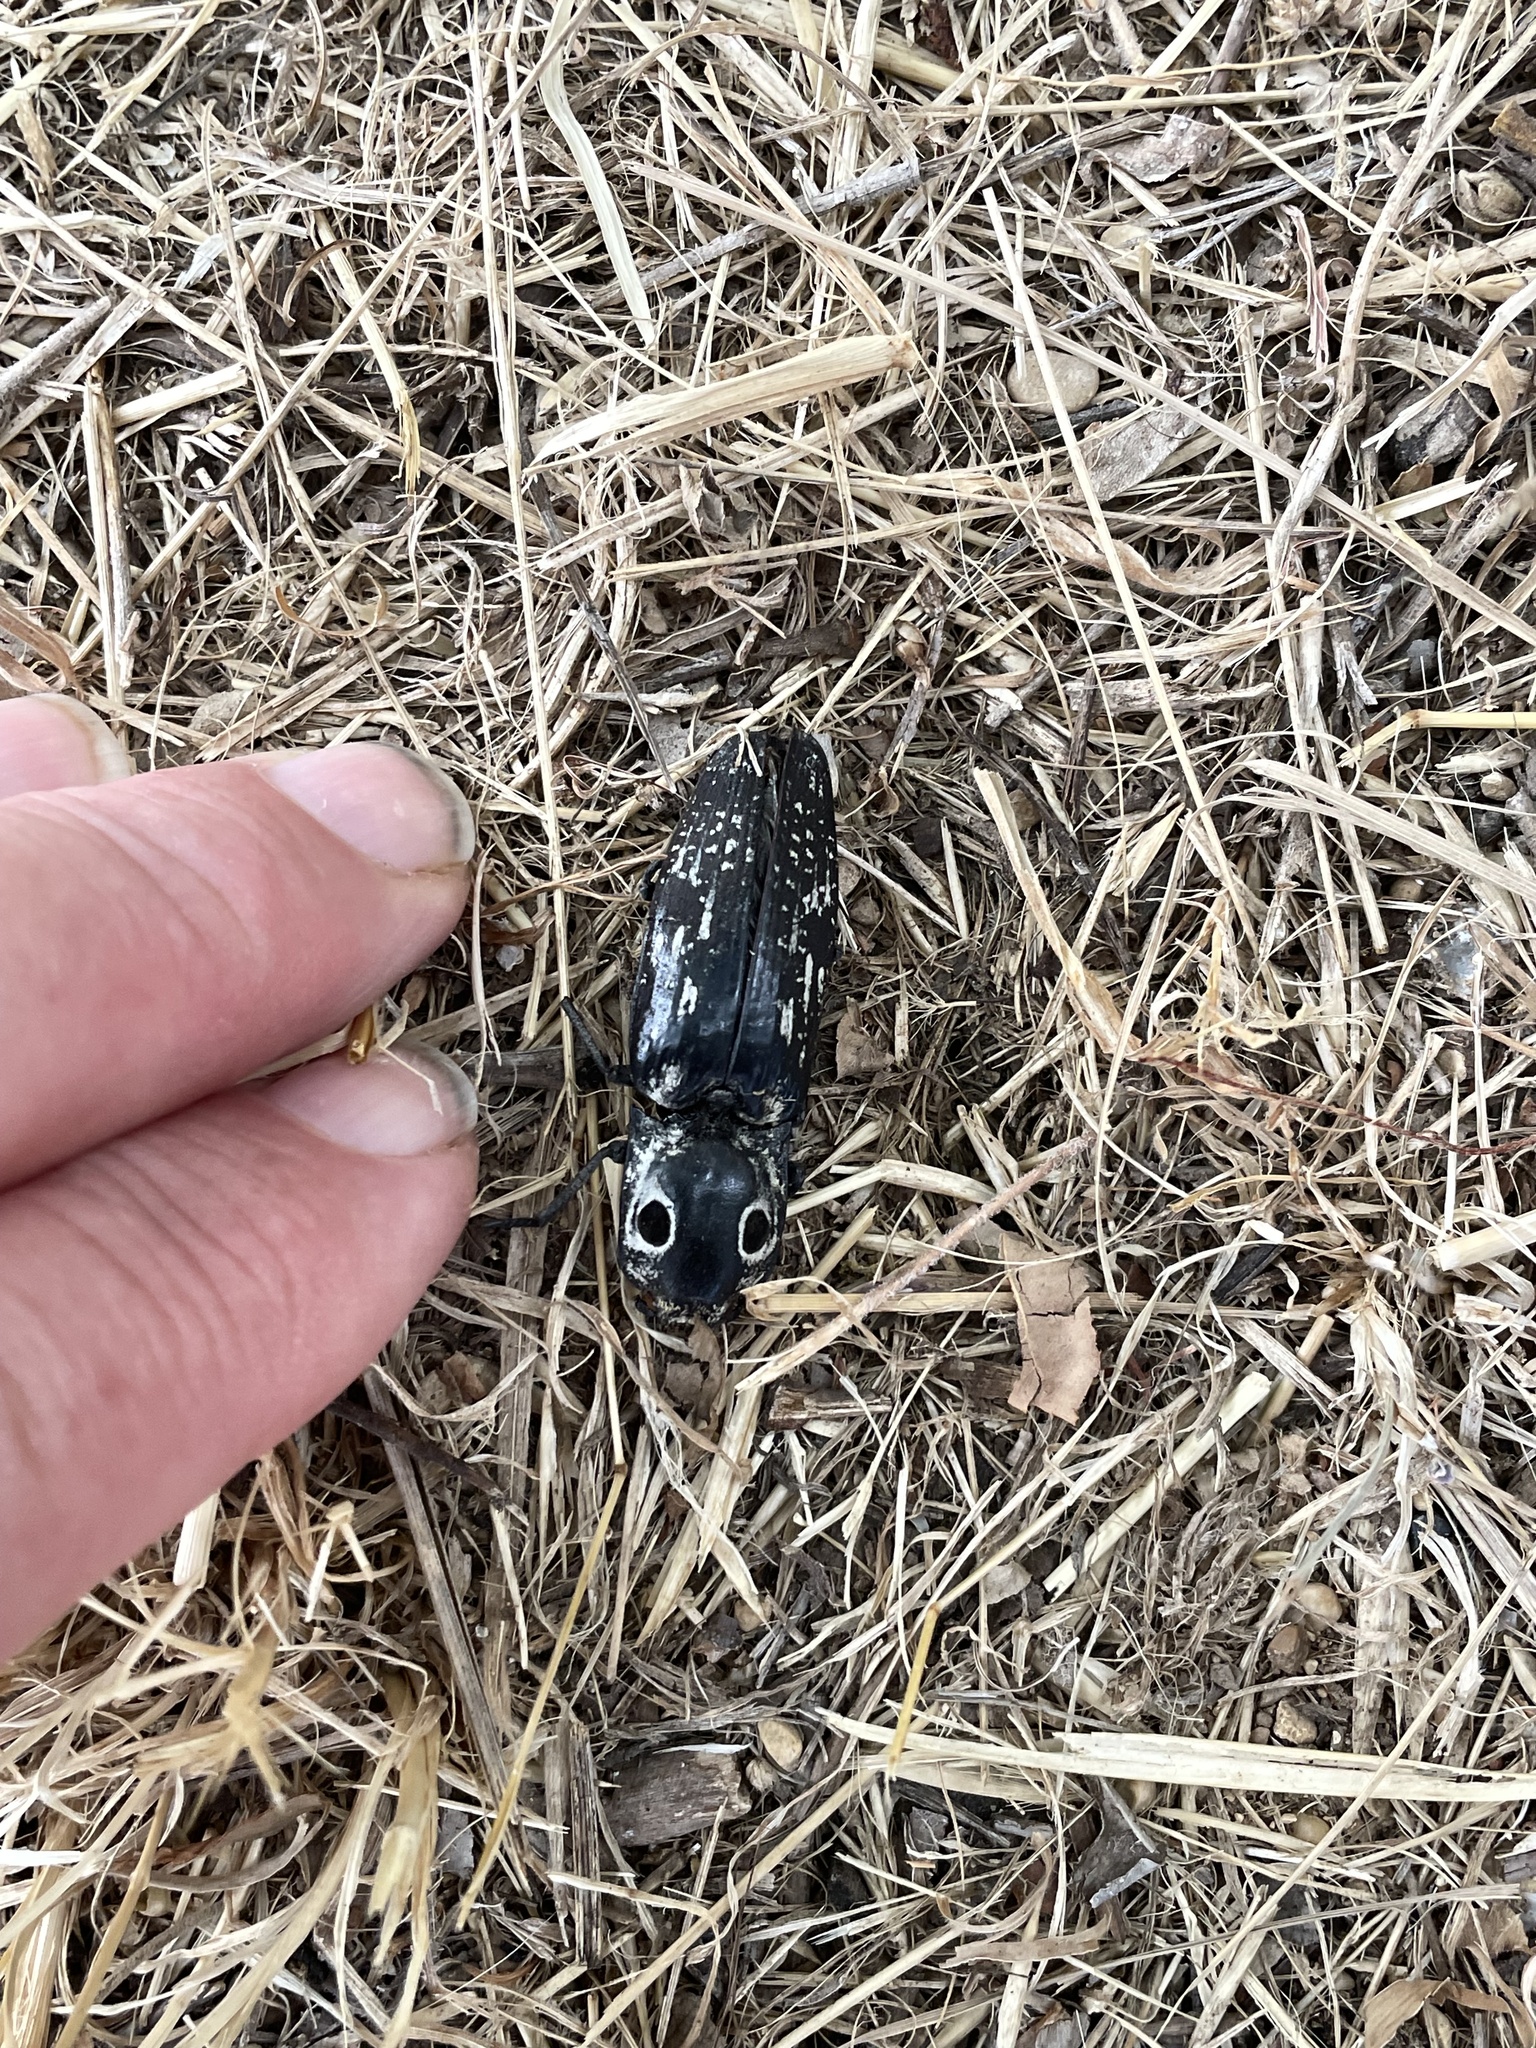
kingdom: Animalia
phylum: Arthropoda
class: Insecta
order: Coleoptera
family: Elateridae
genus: Alaus
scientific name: Alaus
